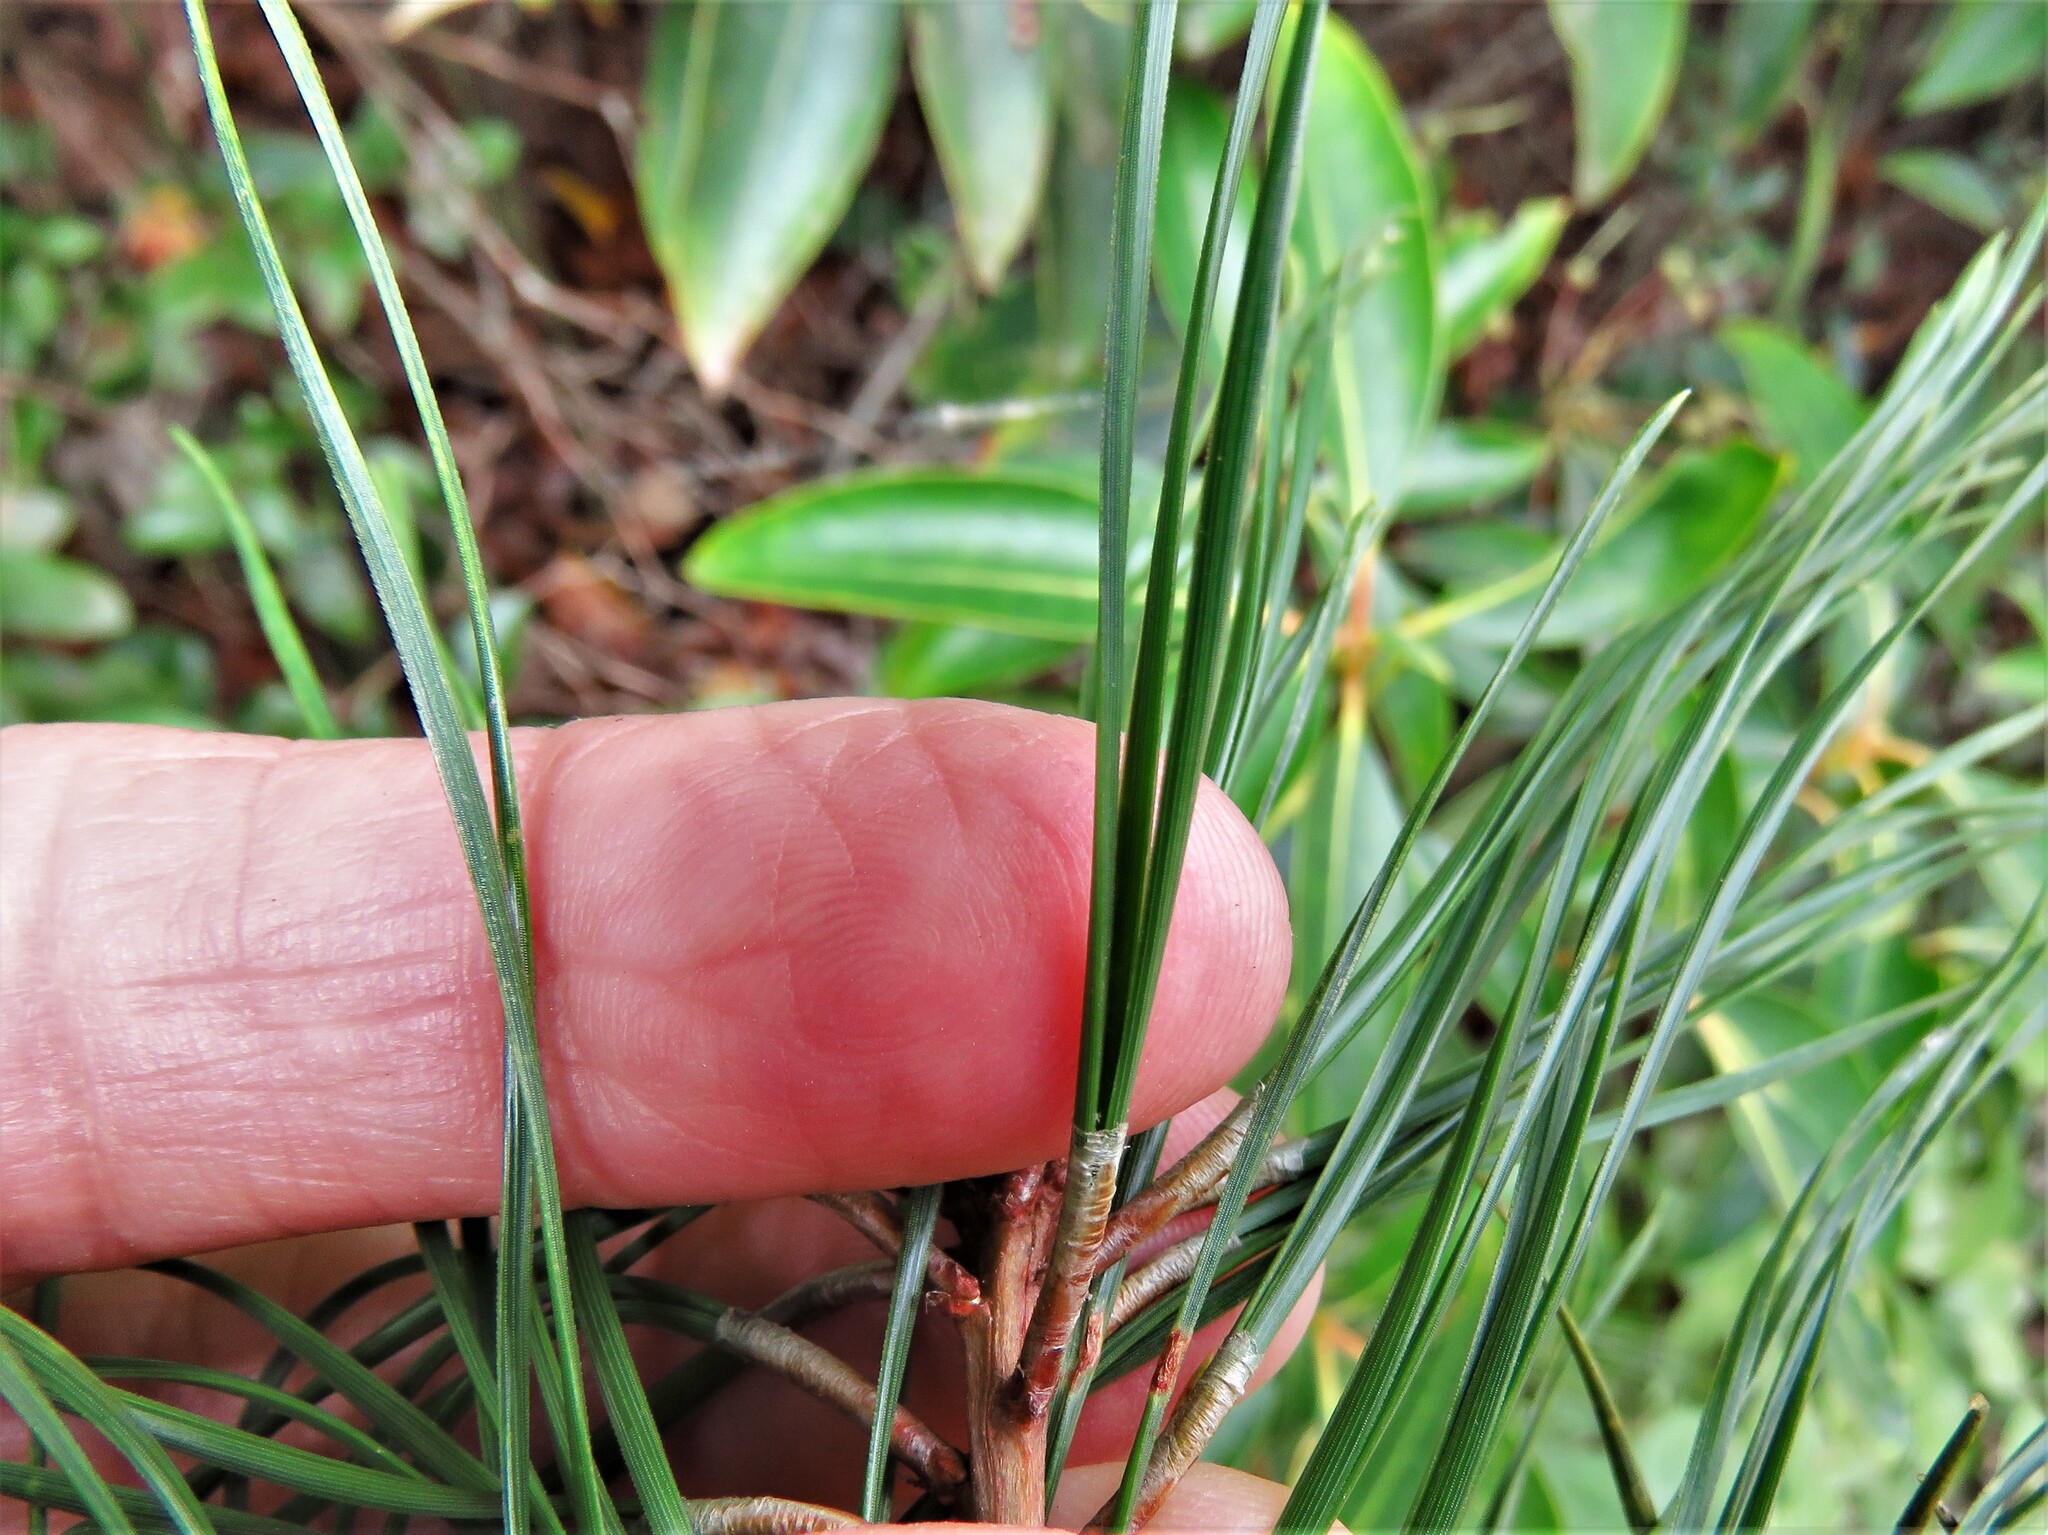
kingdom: Plantae
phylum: Tracheophyta
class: Pinopsida
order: Pinales
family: Pinaceae
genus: Pinus
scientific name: Pinus rigida
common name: Pitch pine
